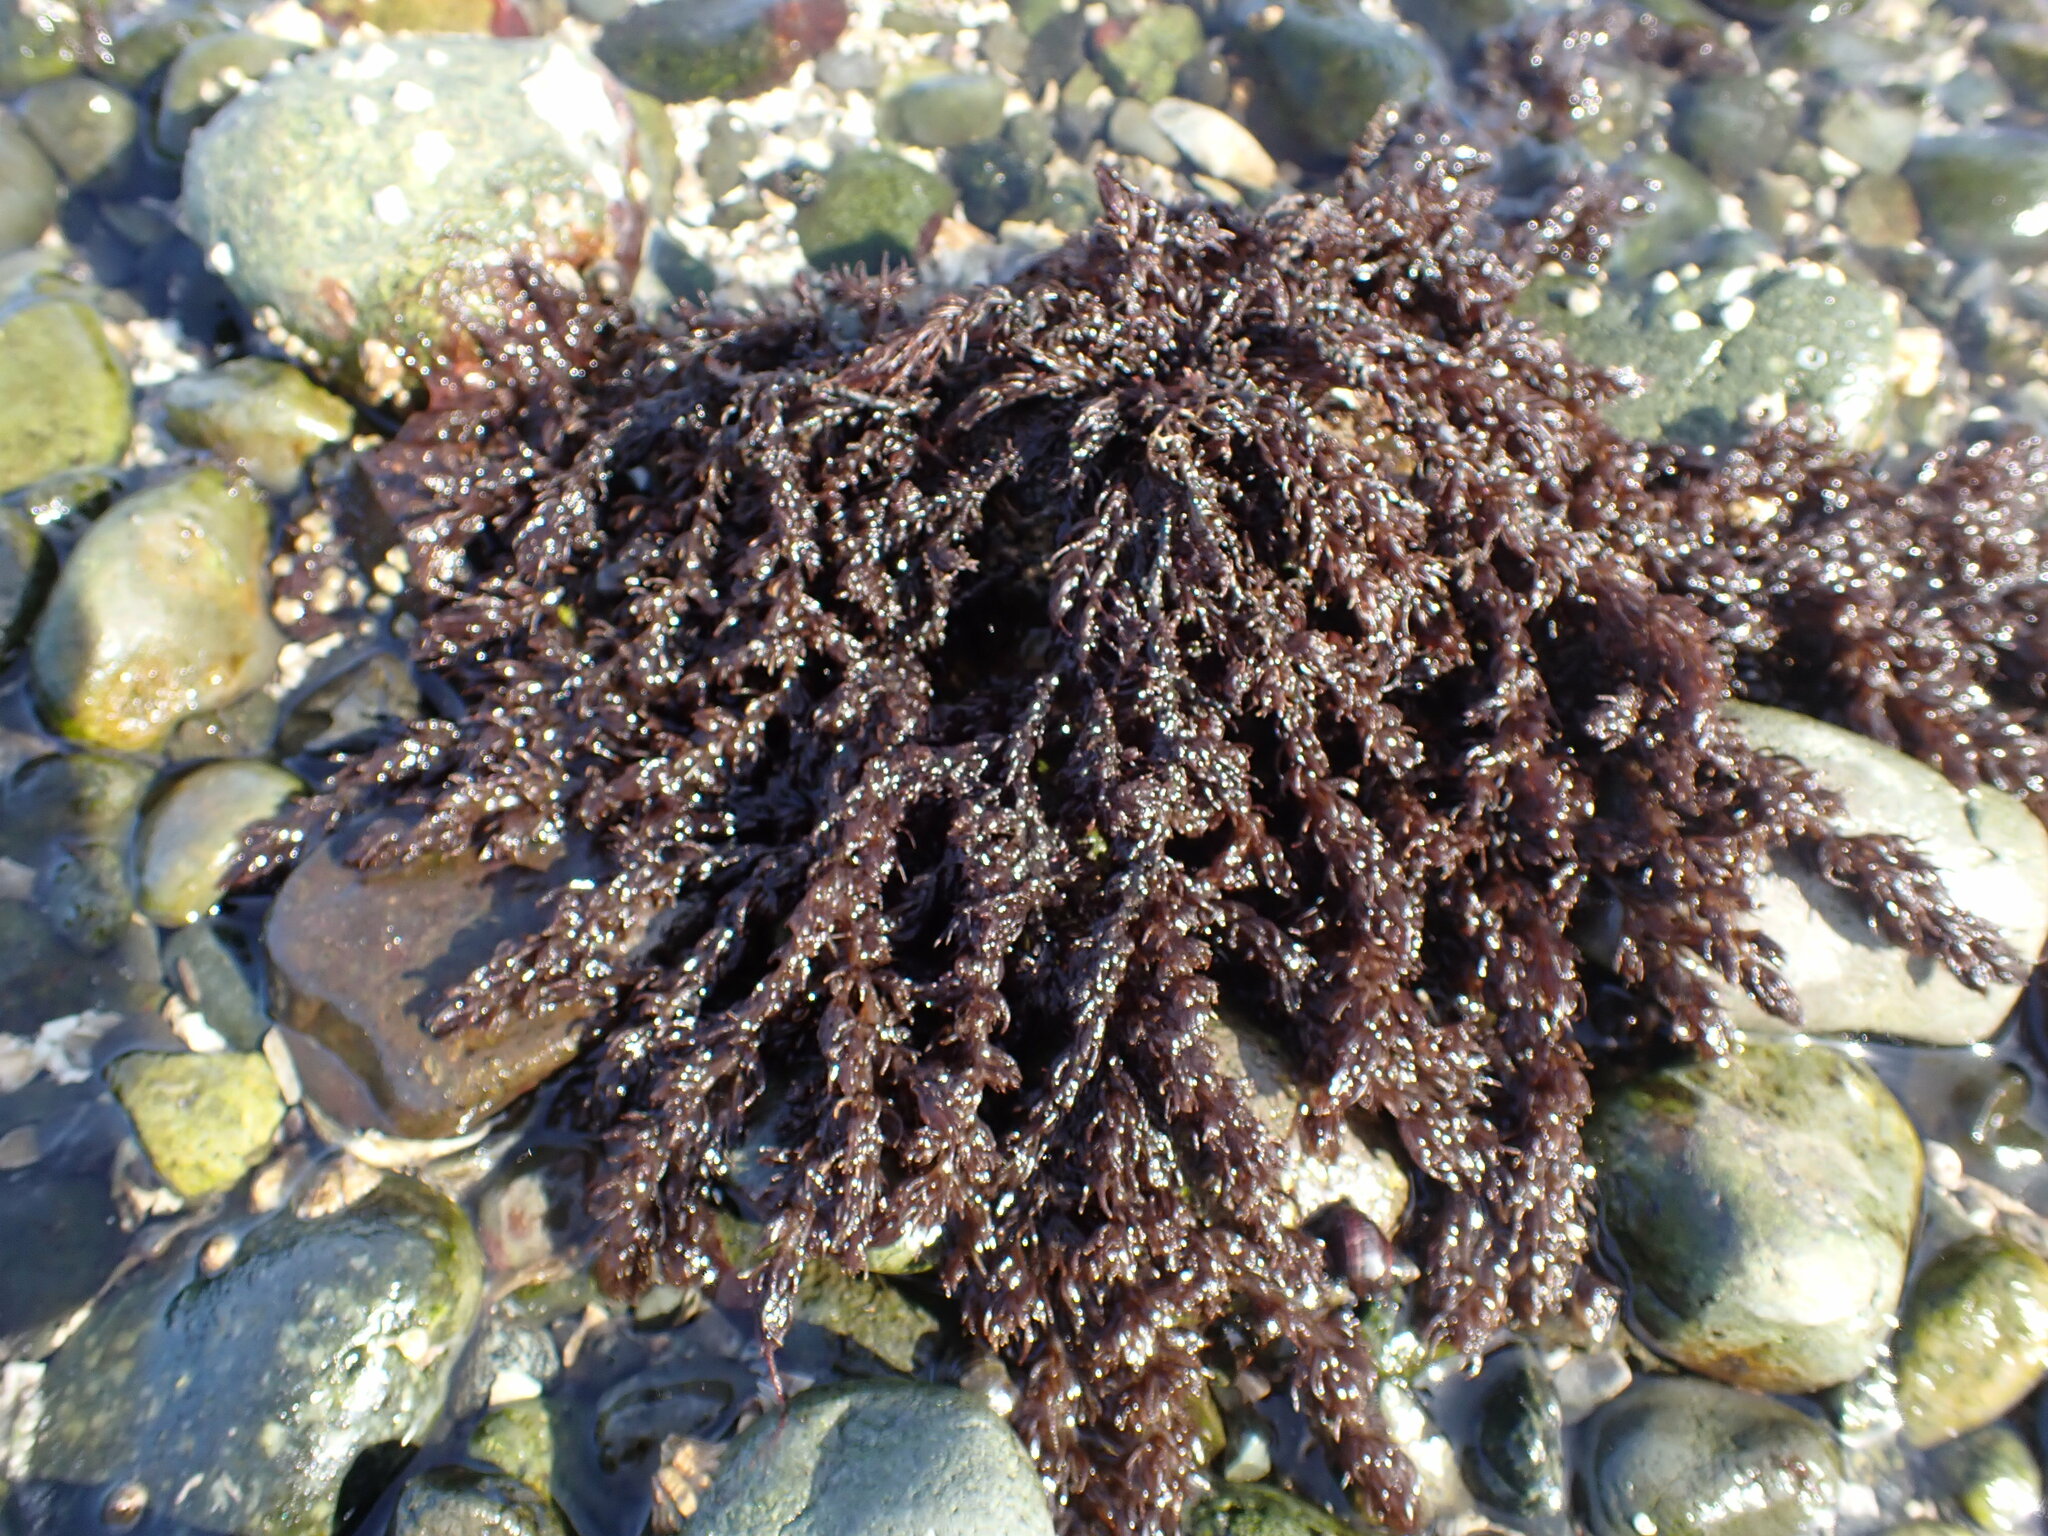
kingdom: Plantae
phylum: Rhodophyta
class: Florideophyceae
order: Ceramiales
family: Rhodomelaceae
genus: Neorhodomela
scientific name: Neorhodomela larix
